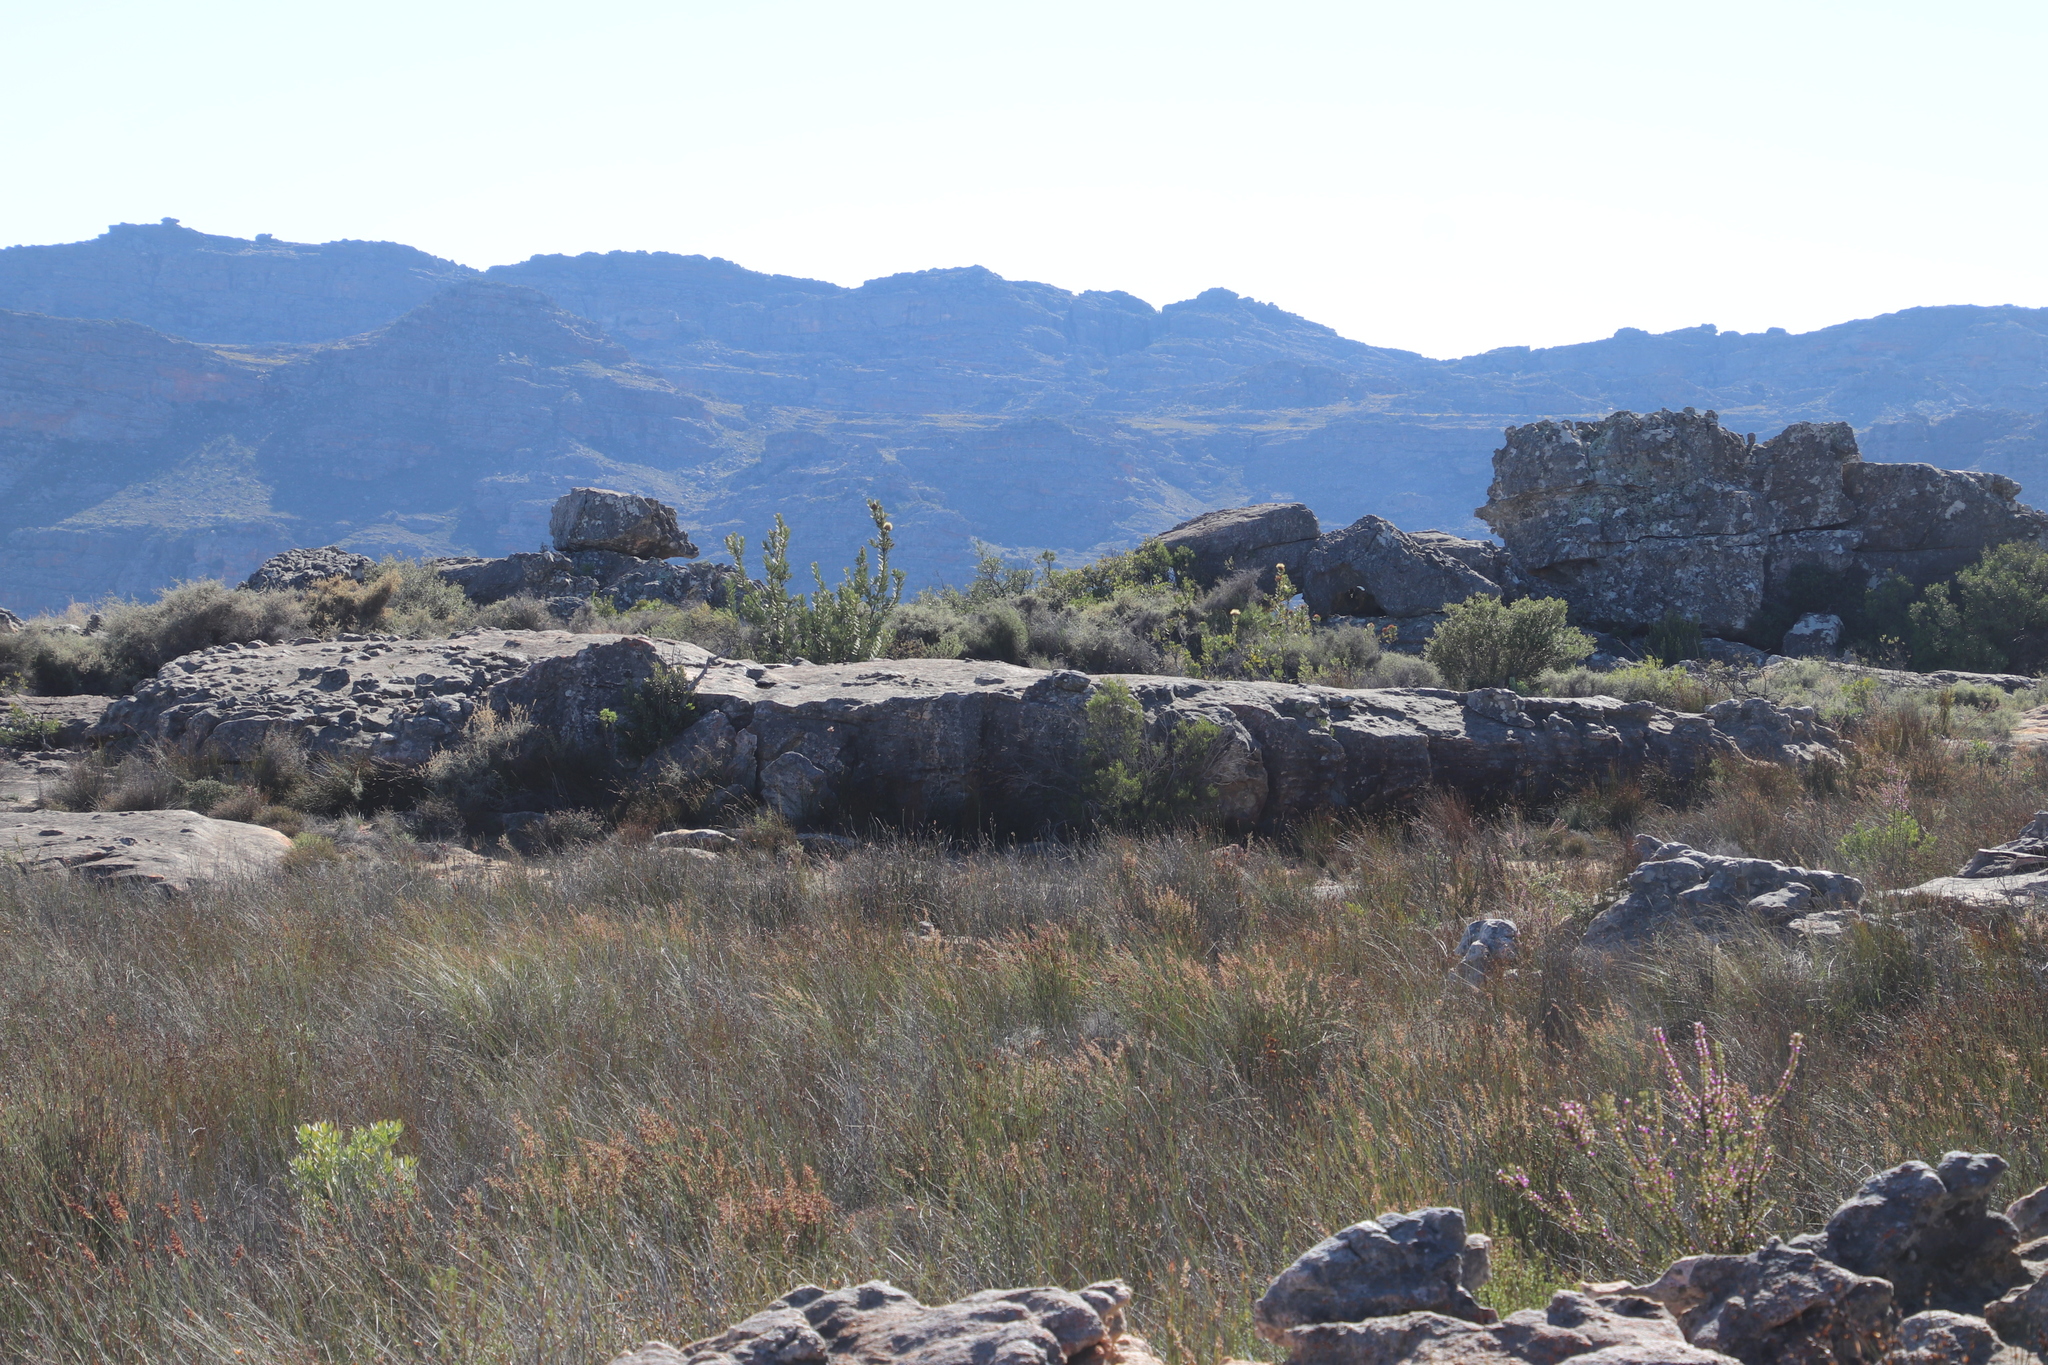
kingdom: Plantae
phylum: Tracheophyta
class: Magnoliopsida
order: Proteales
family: Proteaceae
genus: Protea
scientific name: Protea glabra
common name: Chestnut sugarbush
